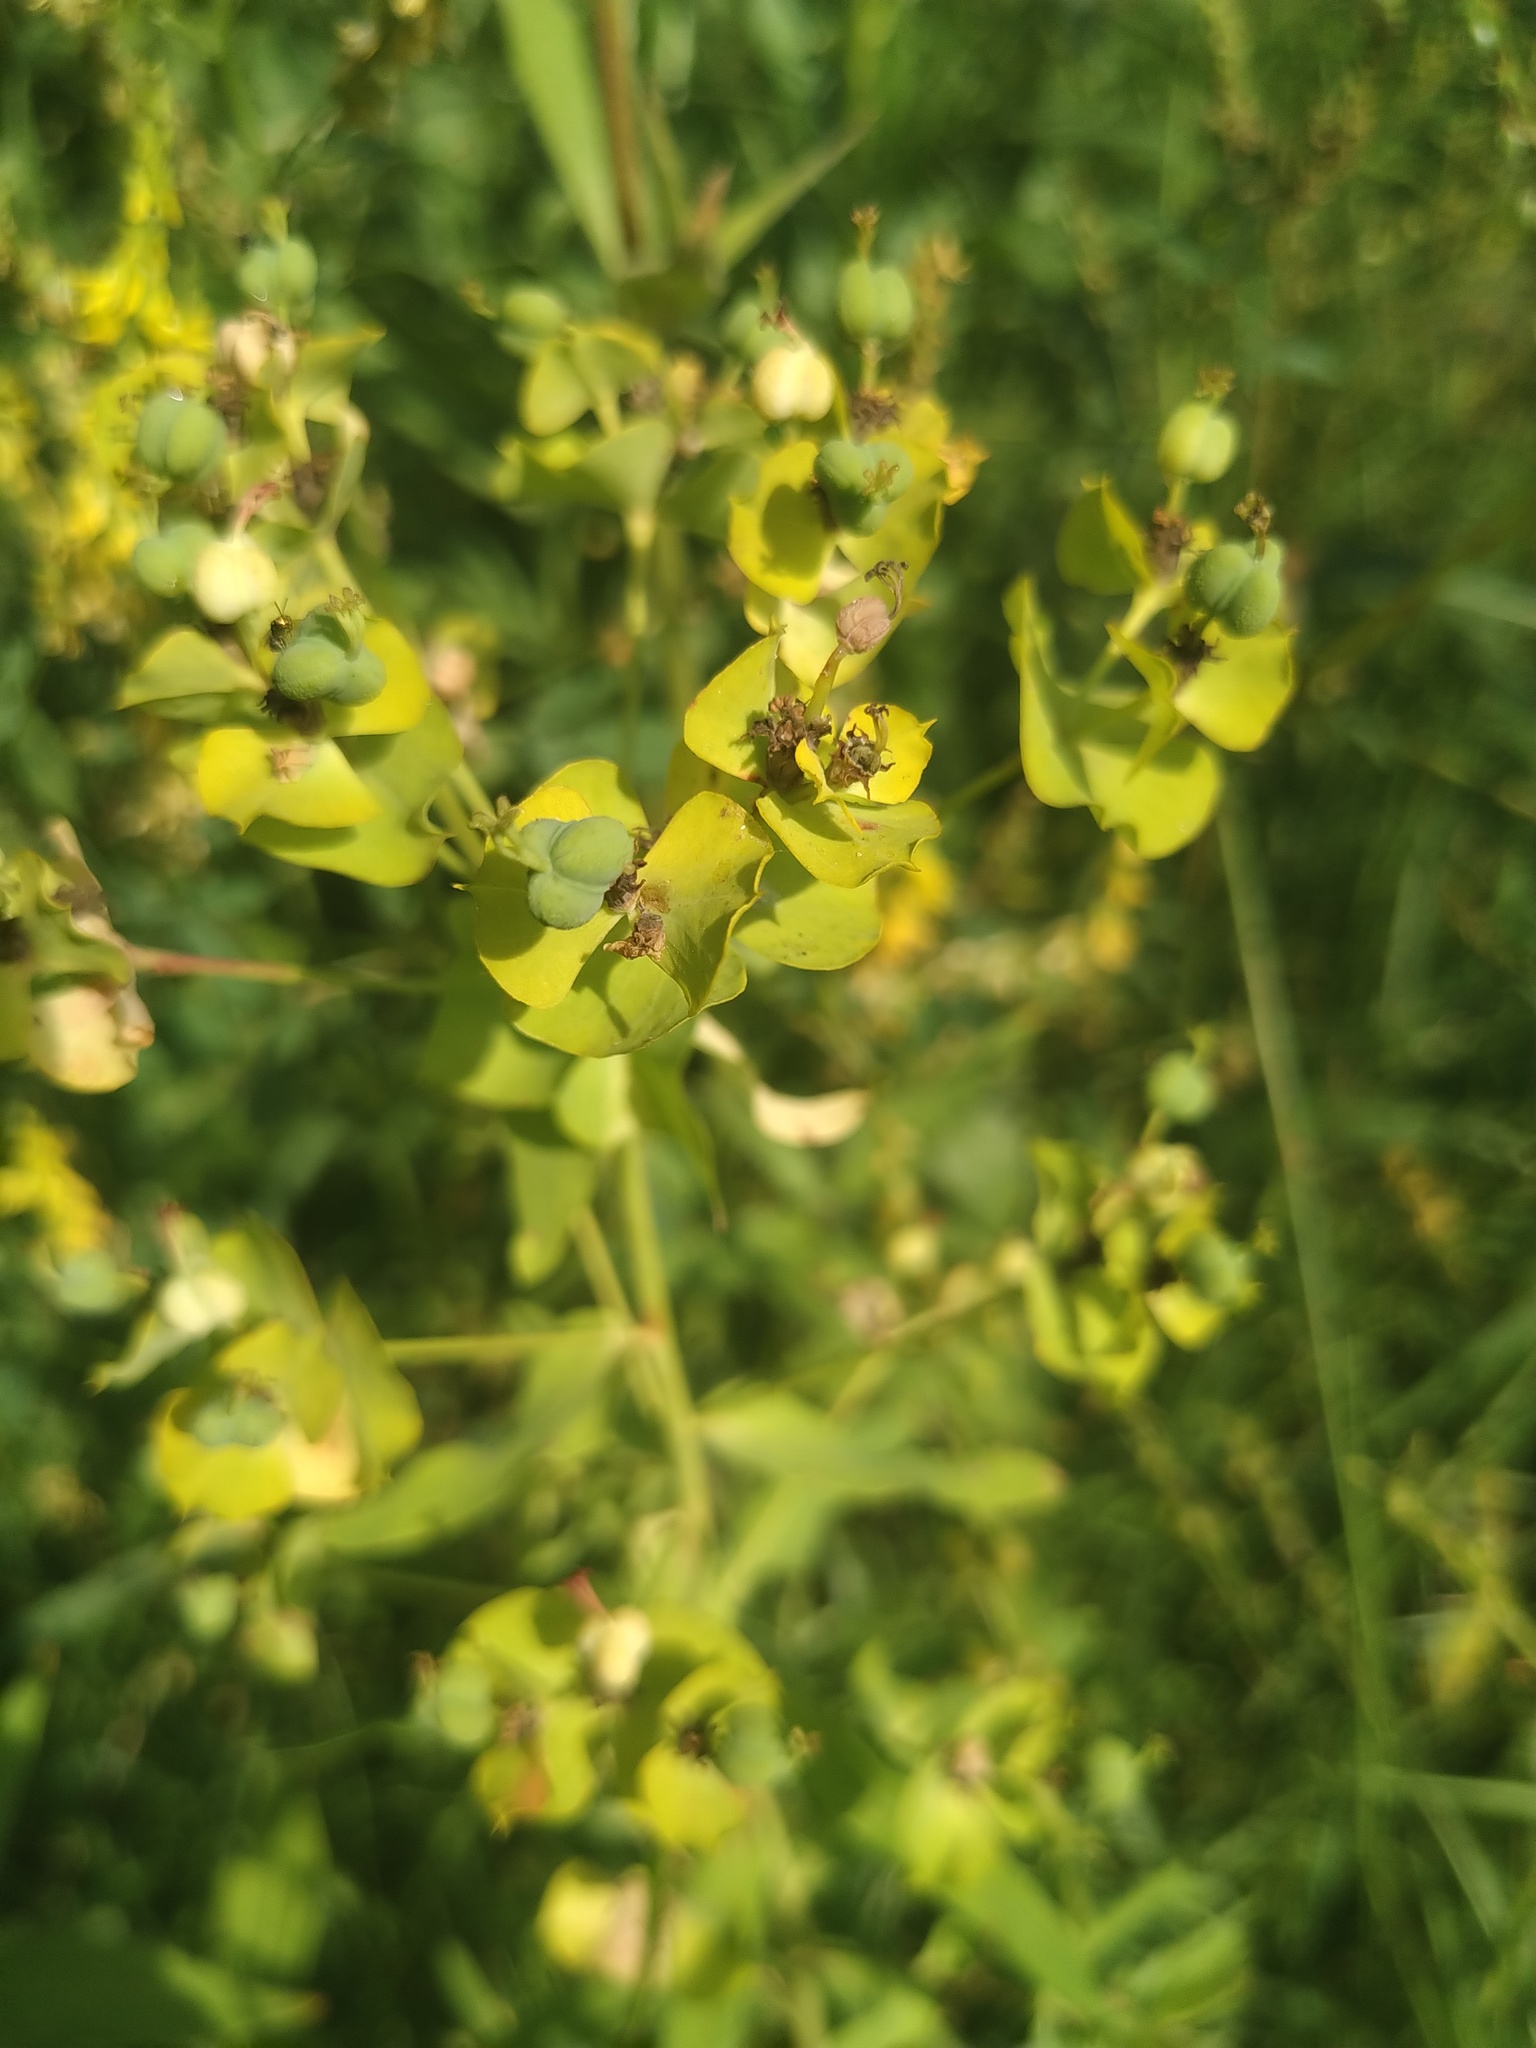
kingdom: Plantae
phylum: Tracheophyta
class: Magnoliopsida
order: Malpighiales
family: Euphorbiaceae
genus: Euphorbia
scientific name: Euphorbia virgata
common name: Leafy spurge
